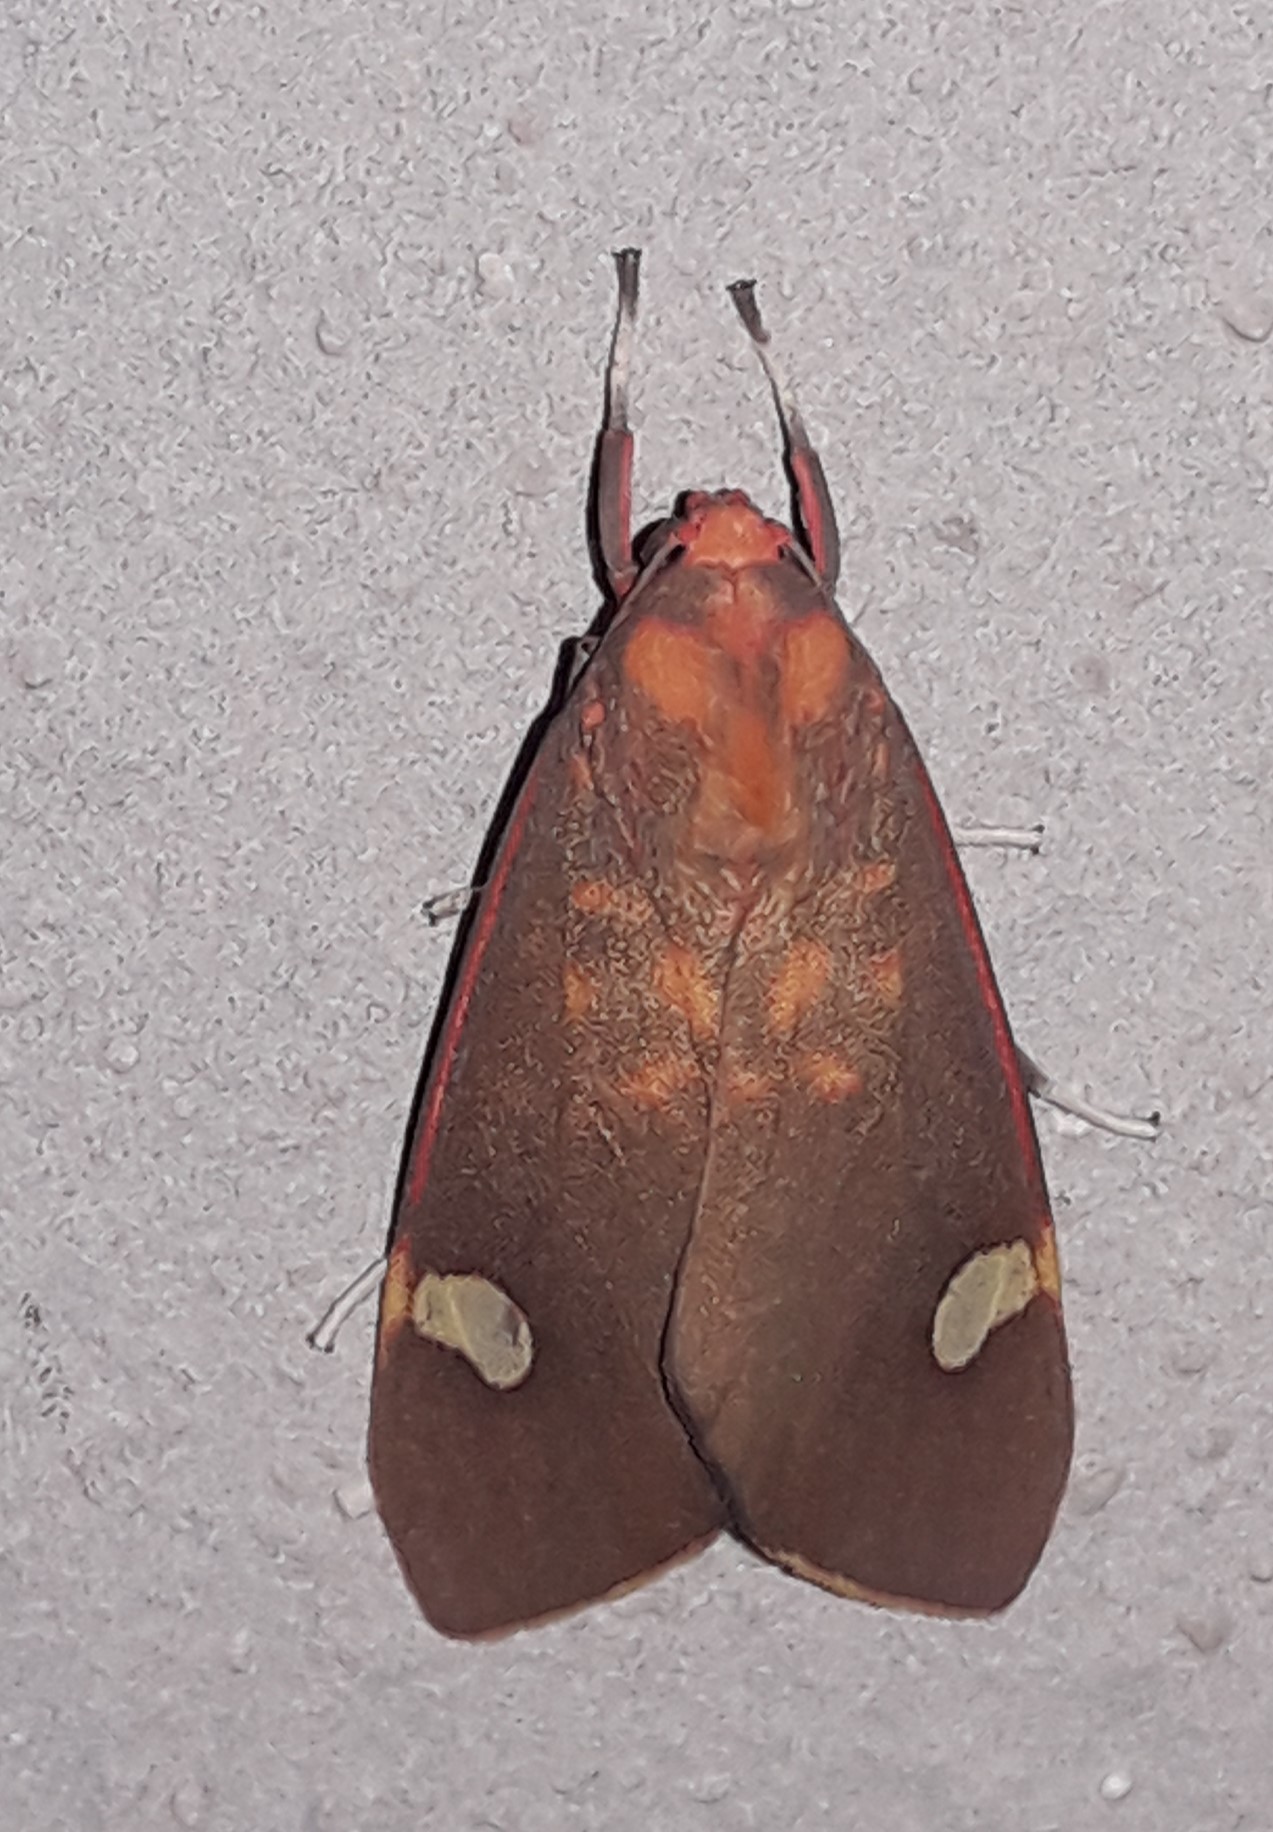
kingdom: Animalia
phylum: Arthropoda
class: Insecta
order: Lepidoptera
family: Erebidae
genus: Melese
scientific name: Melese sixola
